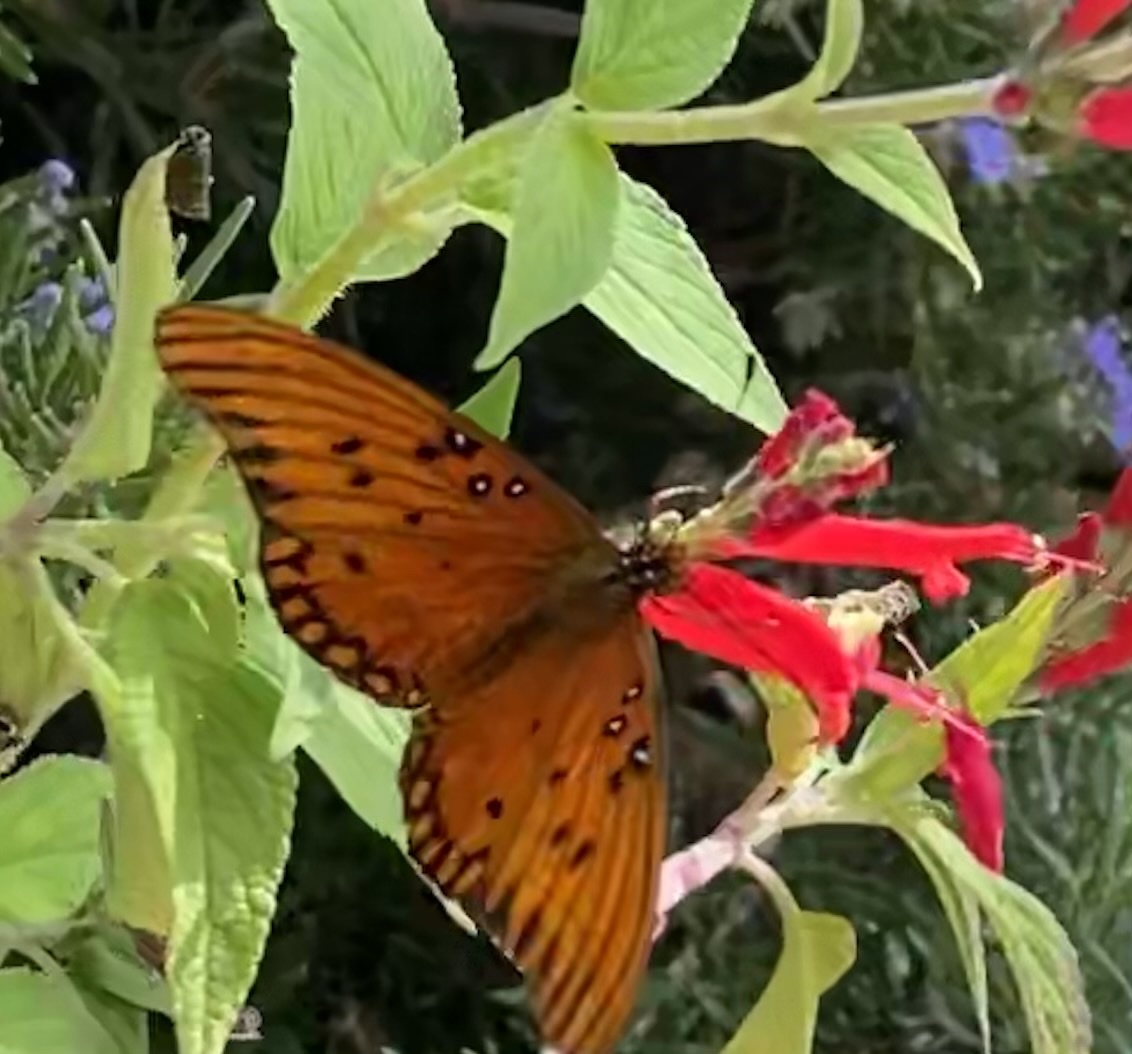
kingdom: Animalia
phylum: Arthropoda
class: Insecta
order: Lepidoptera
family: Nymphalidae
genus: Dione
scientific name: Dione vanillae
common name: Gulf fritillary
